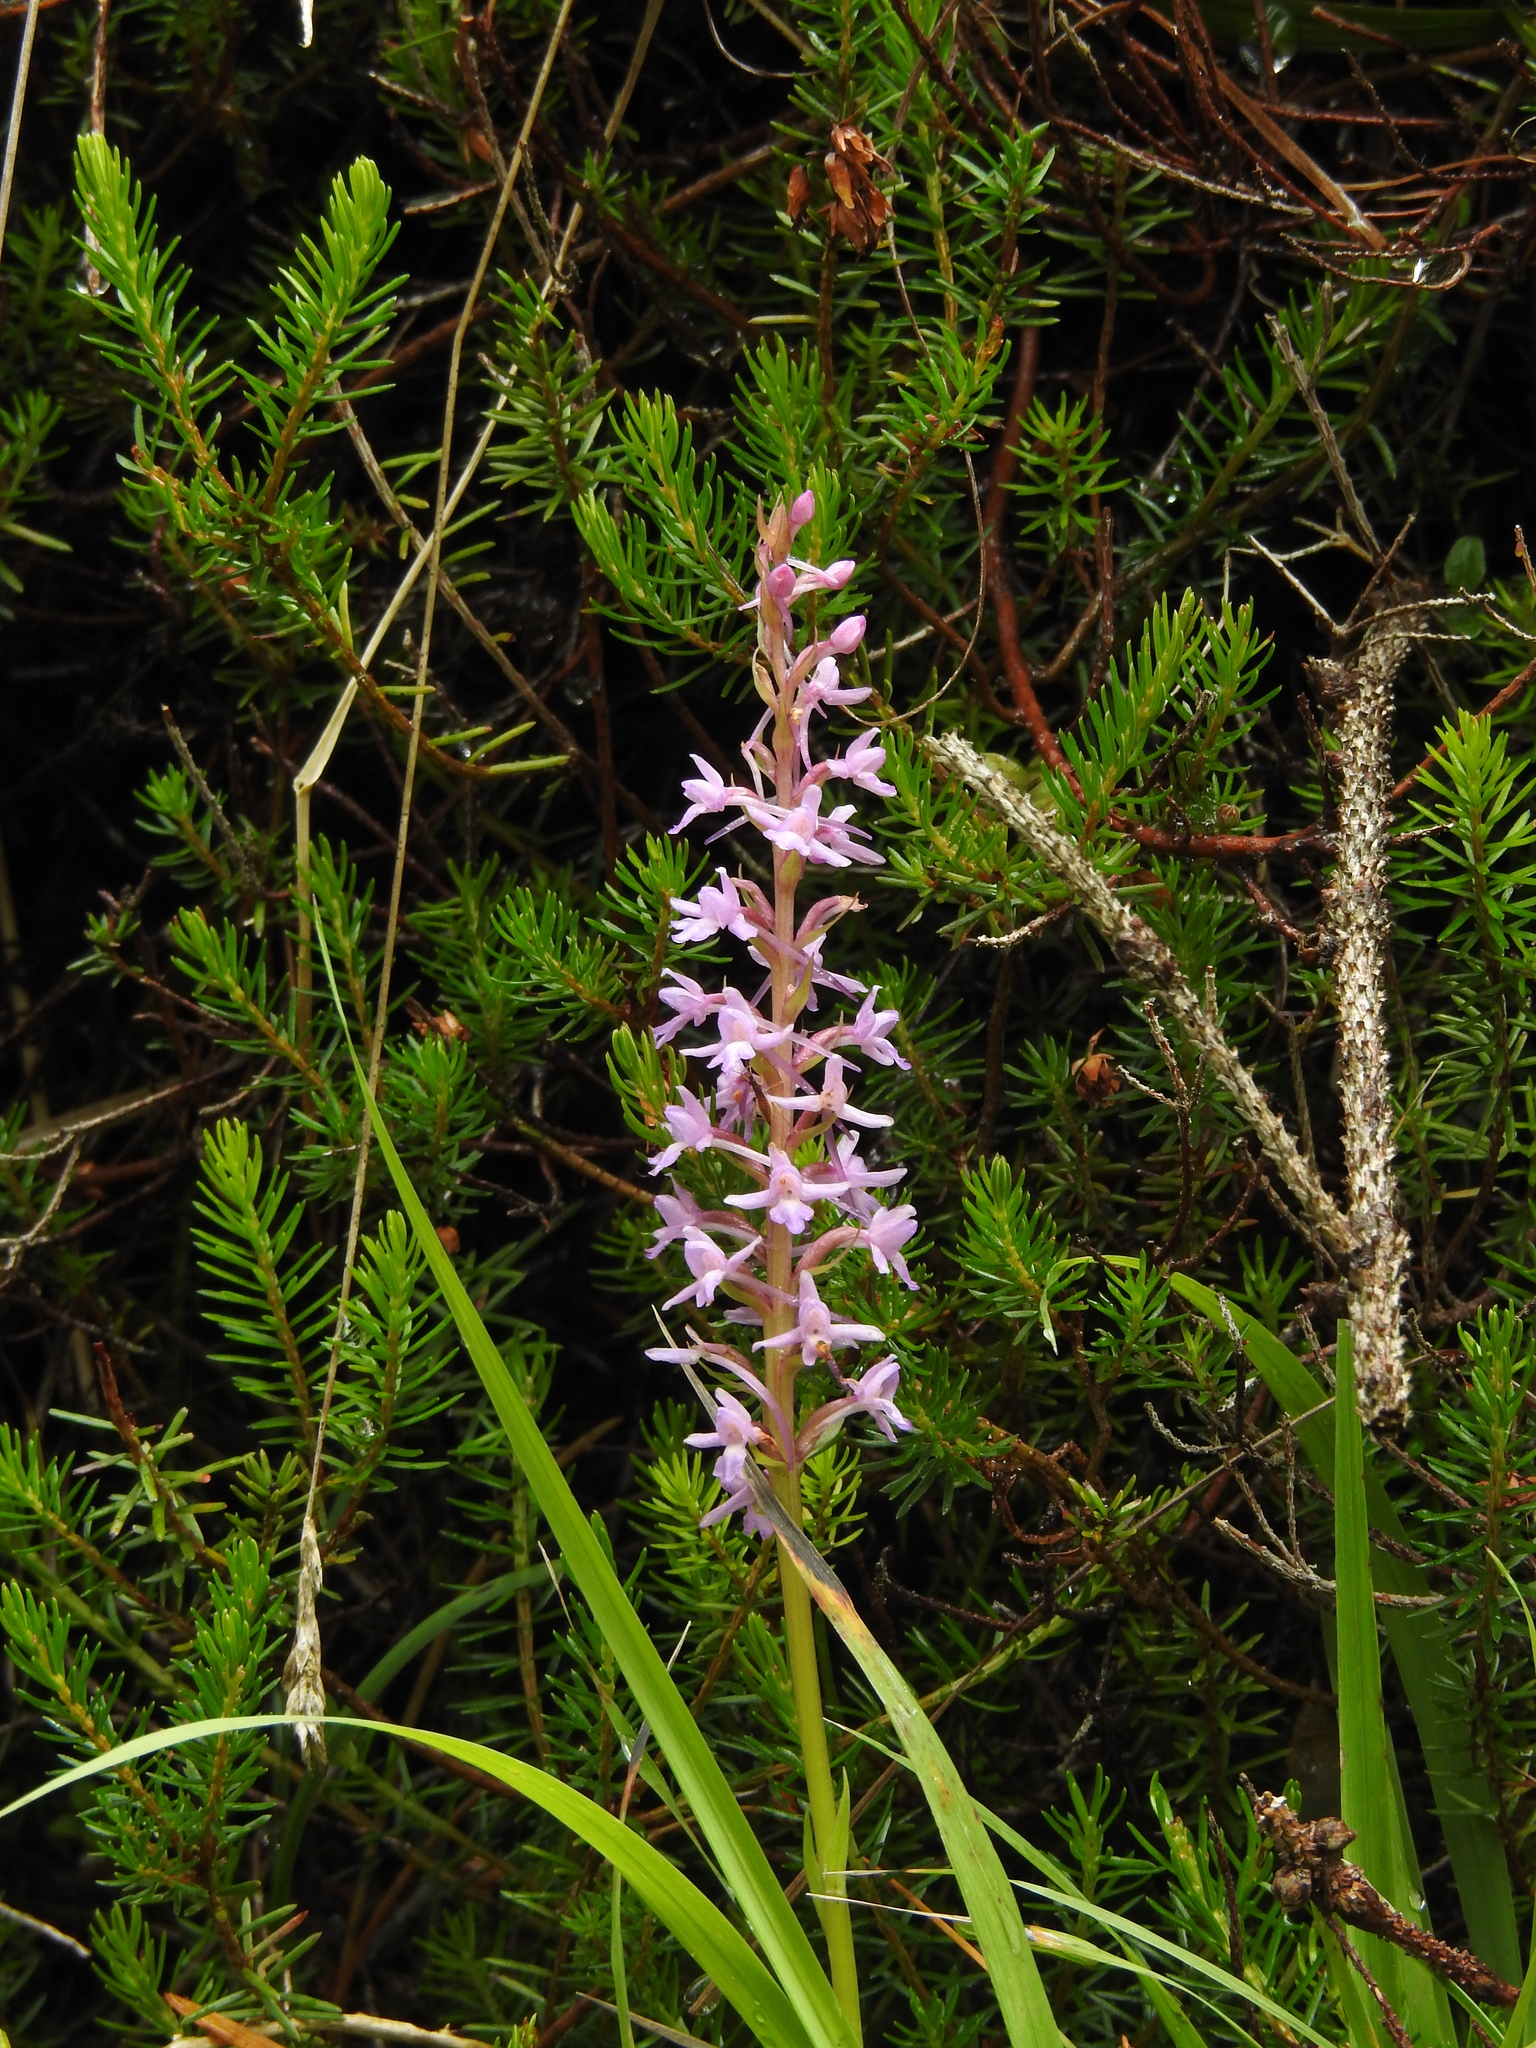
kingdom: Plantae
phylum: Tracheophyta
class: Liliopsida
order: Asparagales
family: Orchidaceae
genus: Gymnadenia
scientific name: Gymnadenia conopsea
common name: Fragrant orchid
